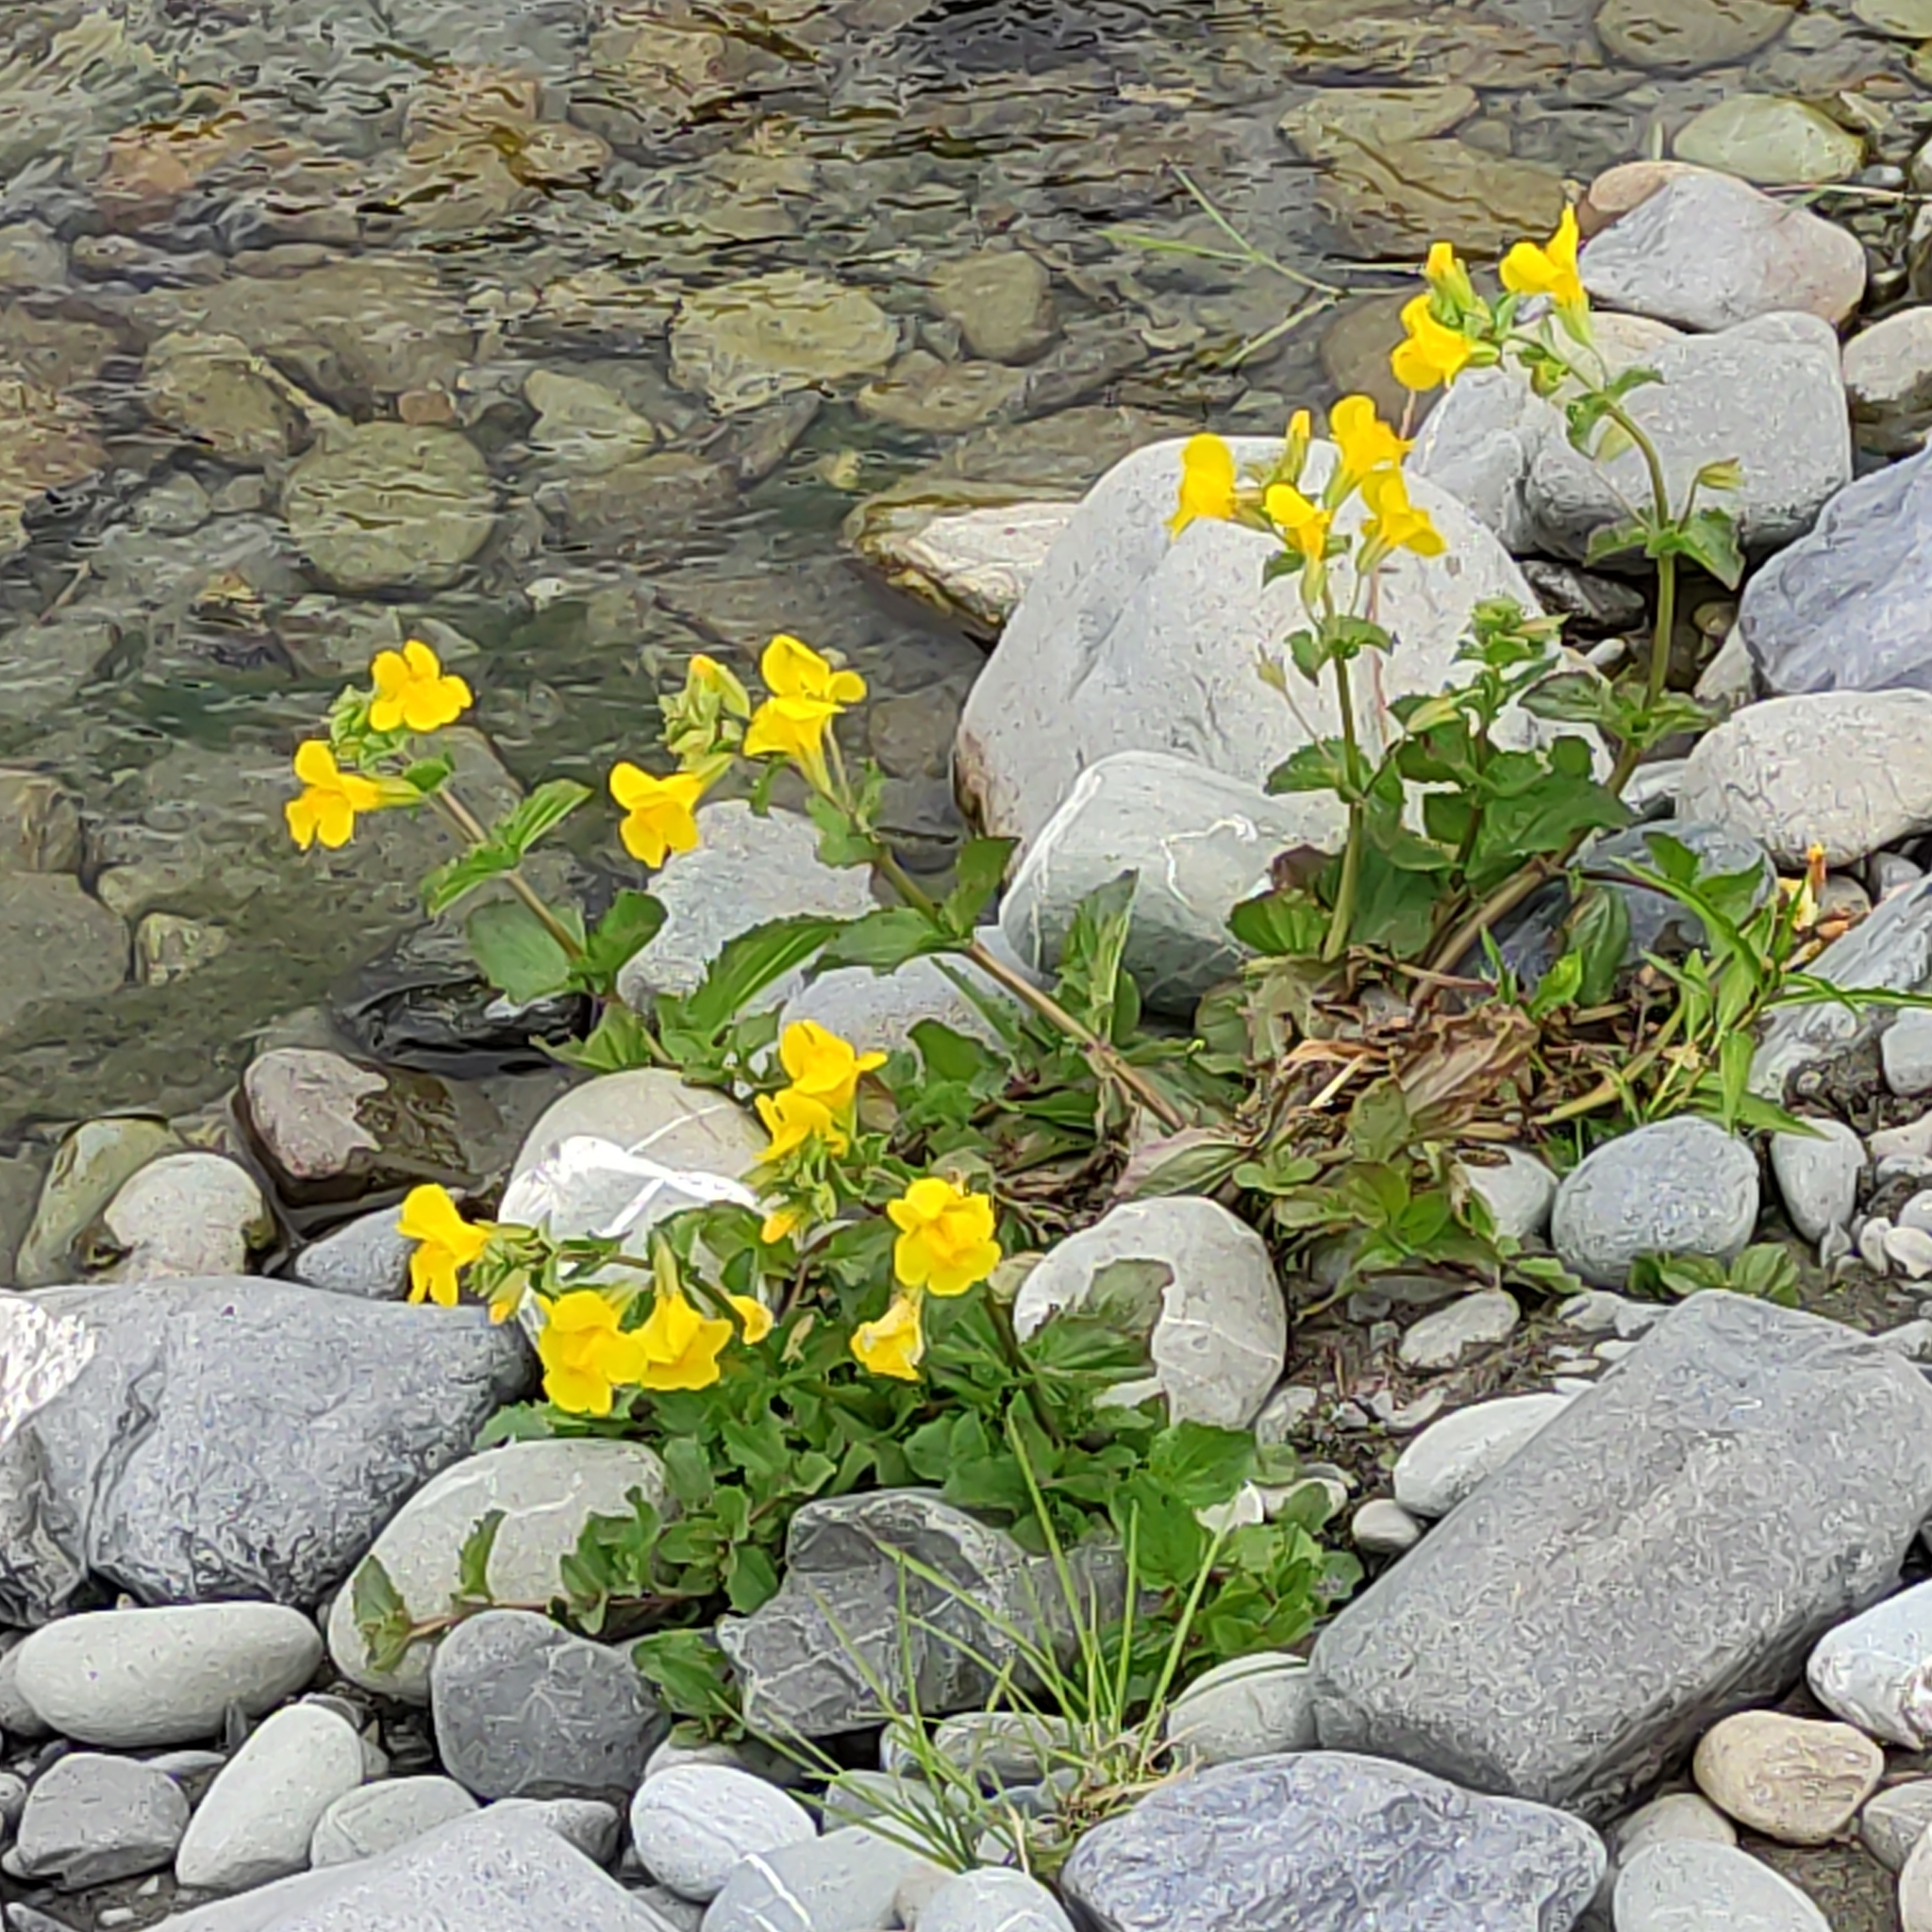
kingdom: Plantae
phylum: Tracheophyta
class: Magnoliopsida
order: Lamiales
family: Phrymaceae
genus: Erythranthe
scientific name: Erythranthe guttata
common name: Monkeyflower
